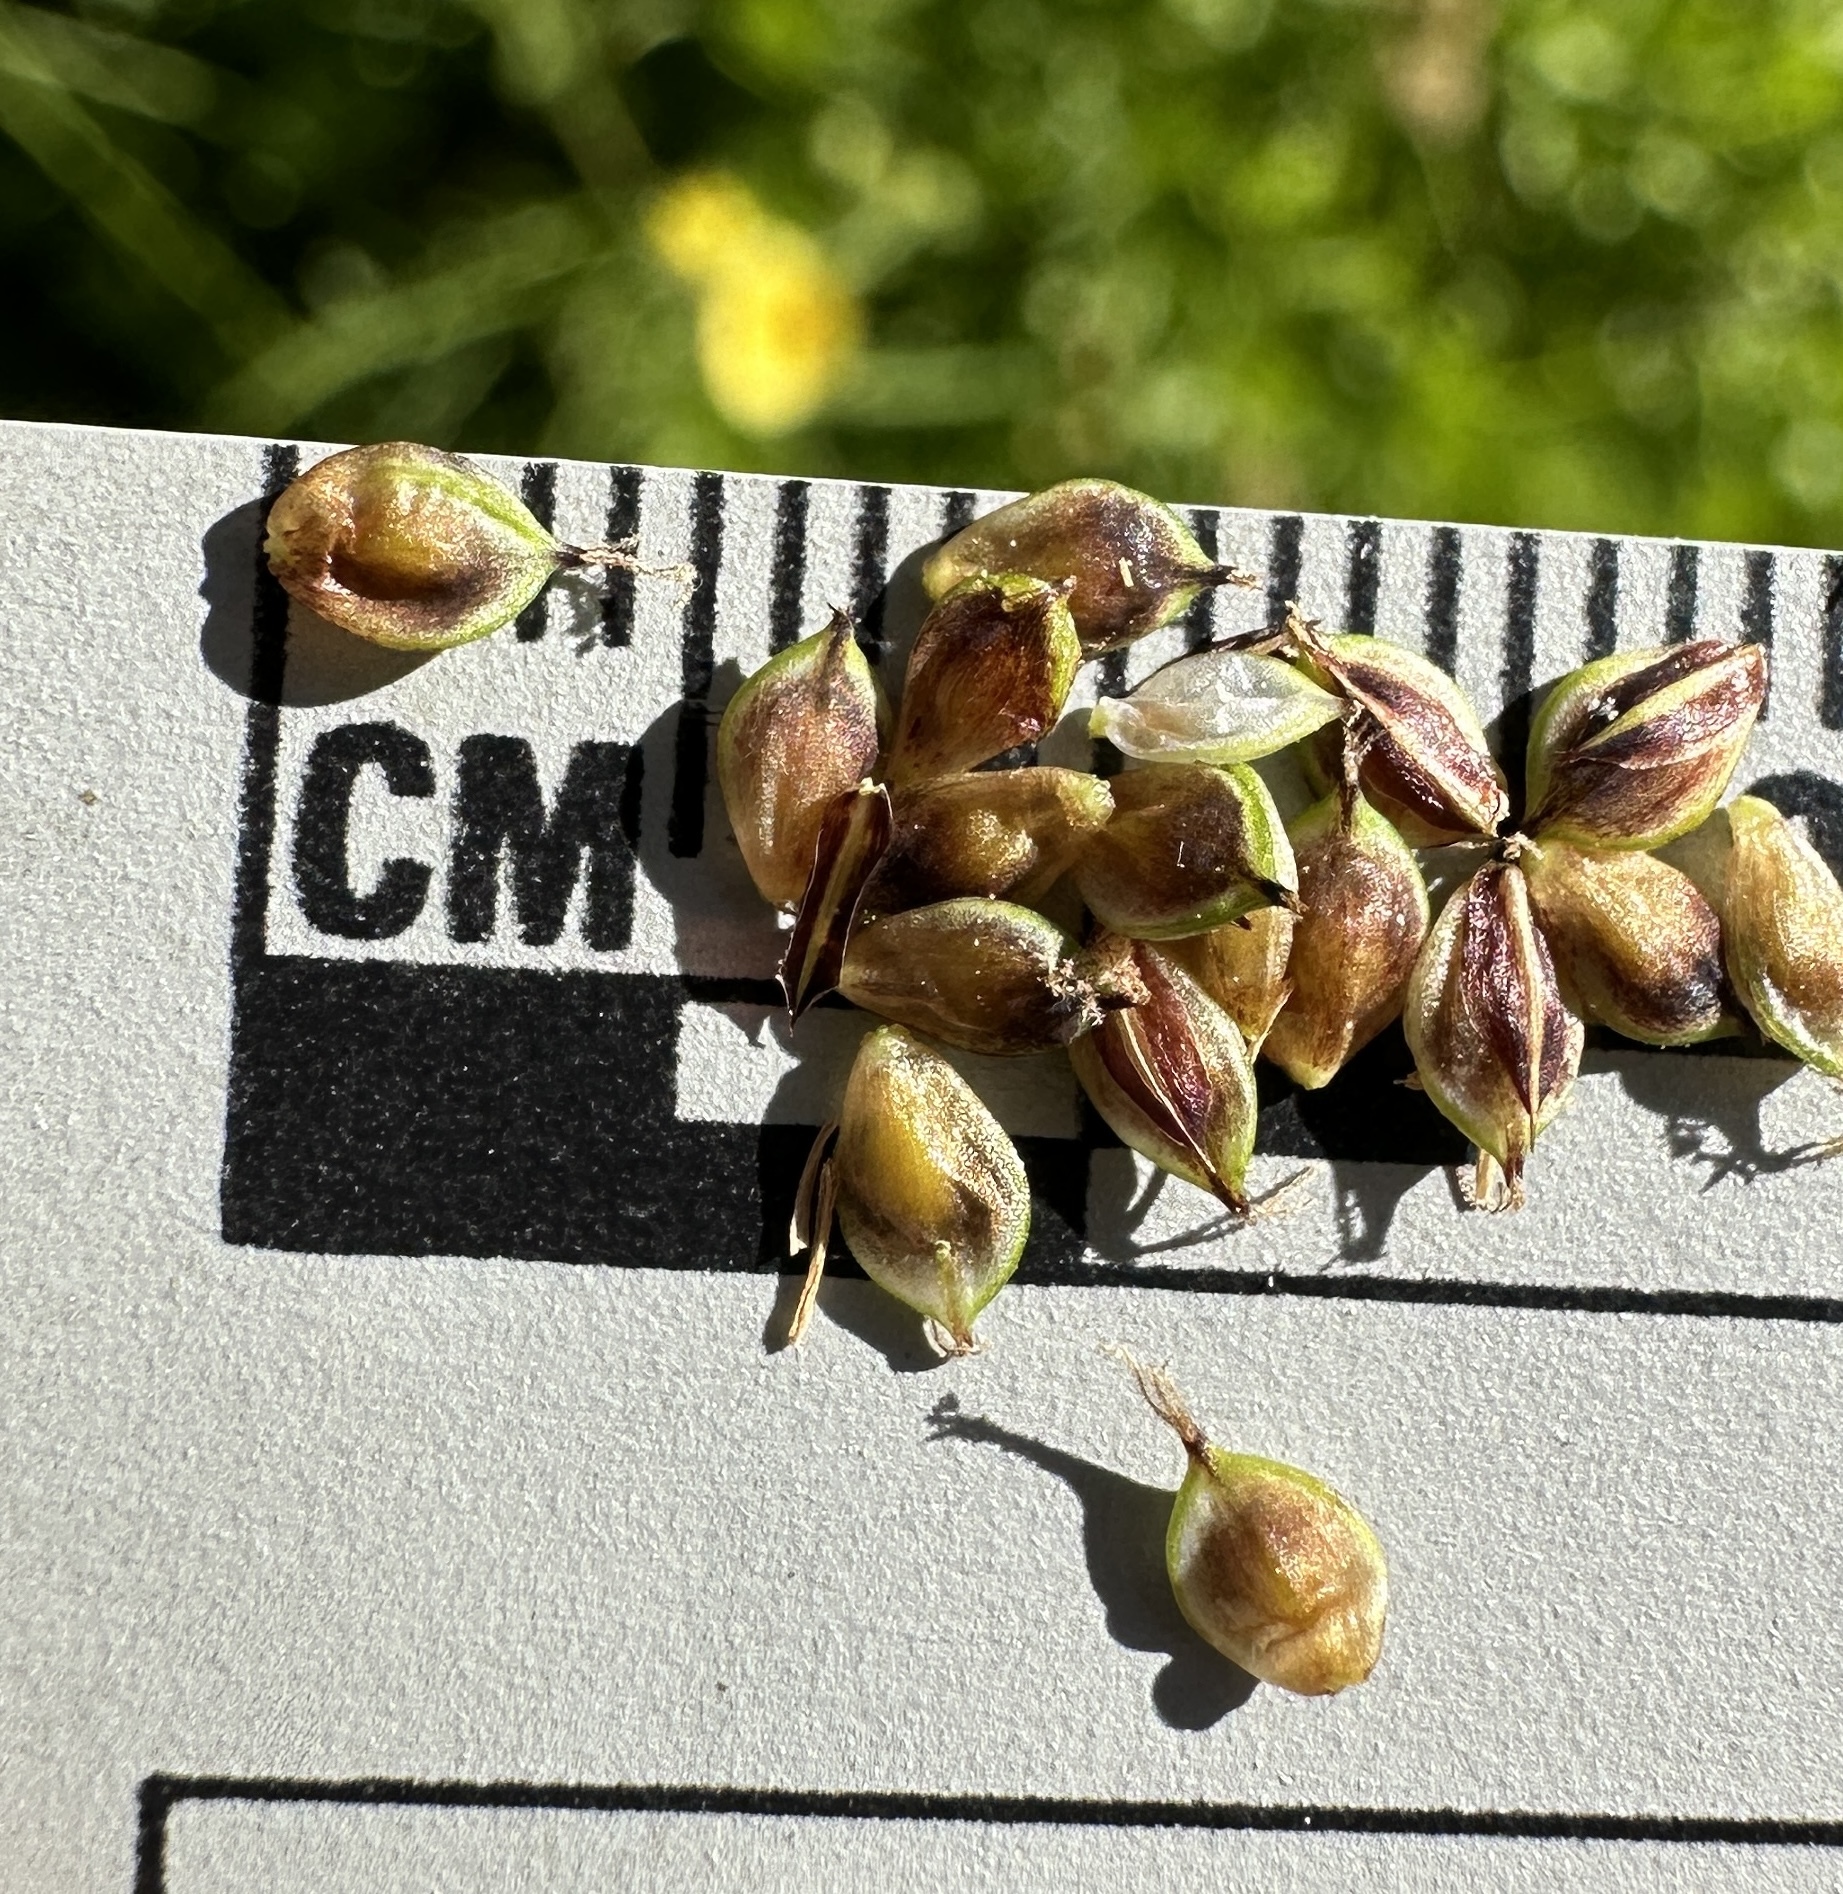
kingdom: Plantae
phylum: Tracheophyta
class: Liliopsida
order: Poales
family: Cyperaceae
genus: Carex
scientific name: Carex heteroneura
